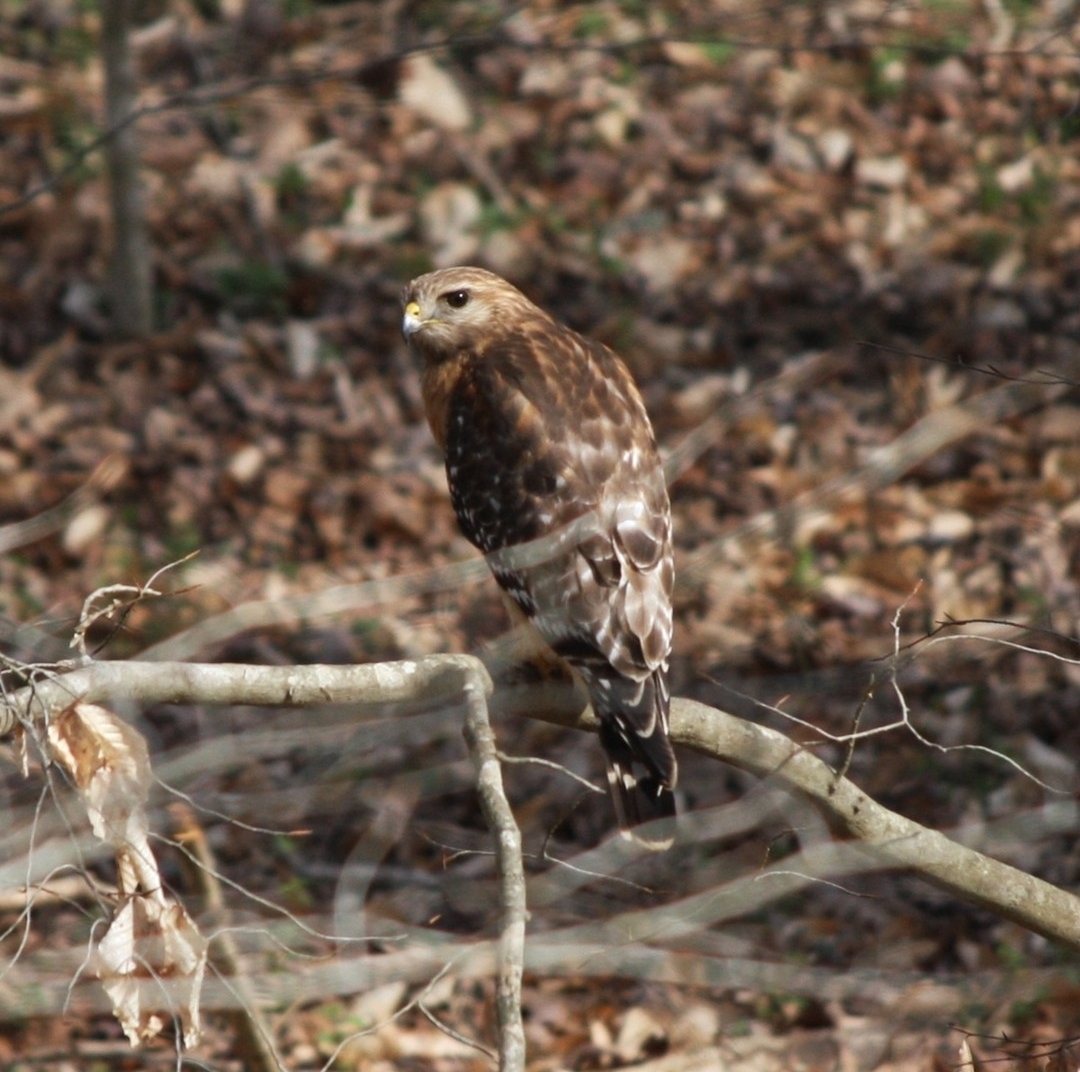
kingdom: Animalia
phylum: Chordata
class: Aves
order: Accipitriformes
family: Accipitridae
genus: Buteo
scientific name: Buteo lineatus
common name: Red-shouldered hawk
